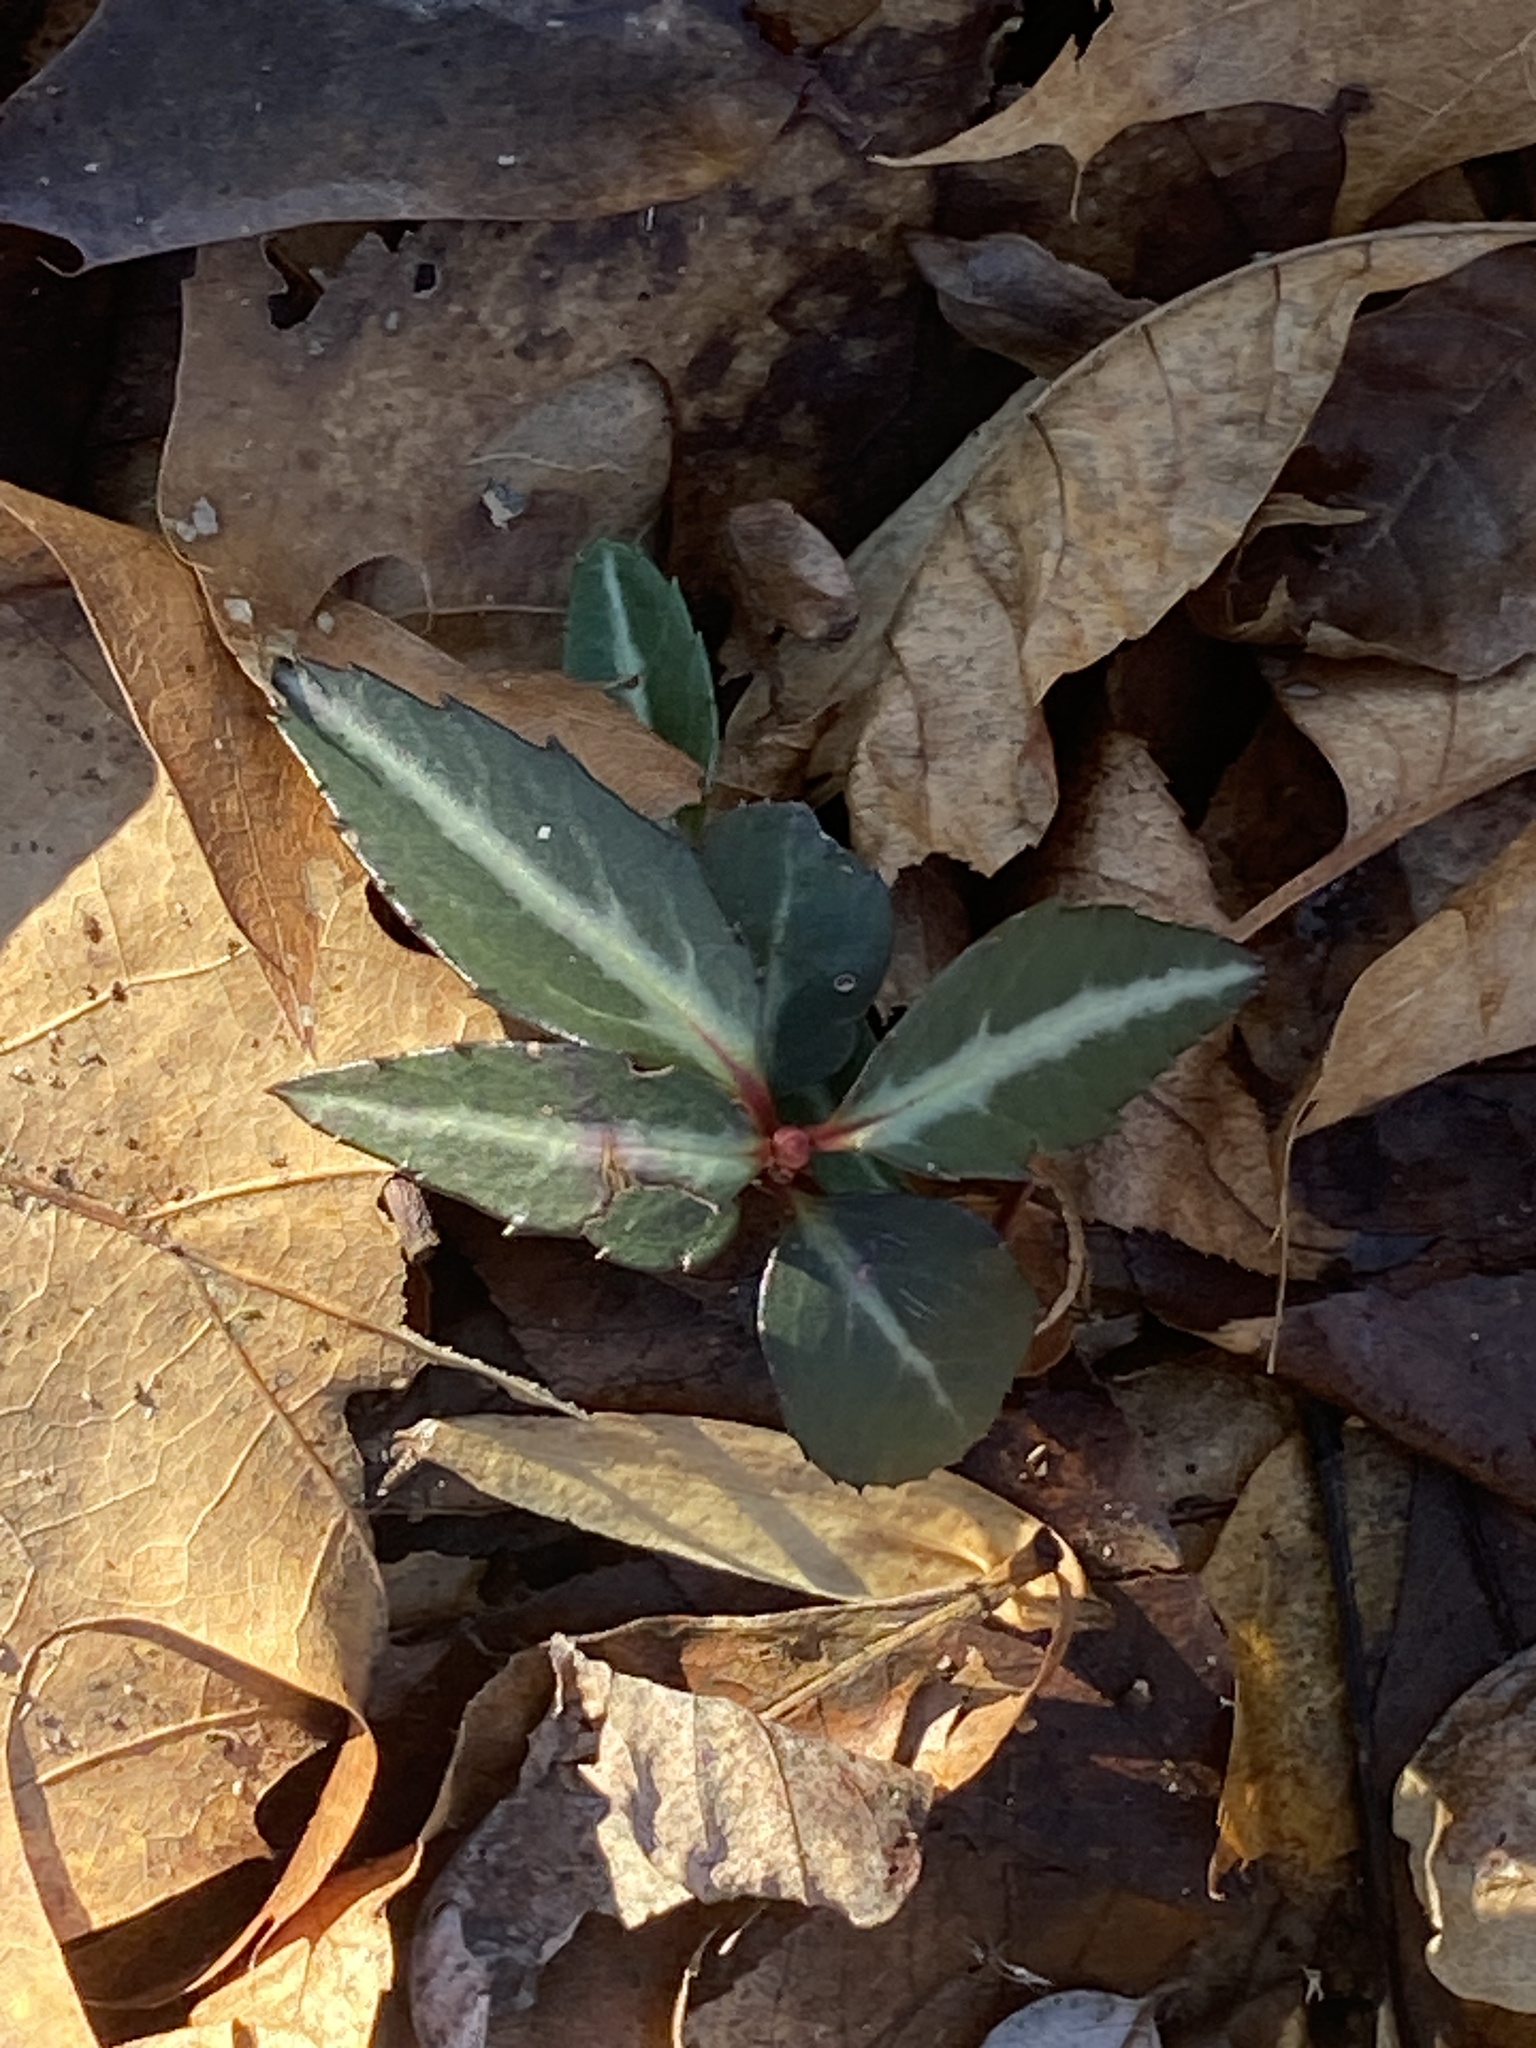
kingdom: Plantae
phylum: Tracheophyta
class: Magnoliopsida
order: Ericales
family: Ericaceae
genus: Chimaphila
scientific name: Chimaphila maculata
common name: Spotted pipsissewa
